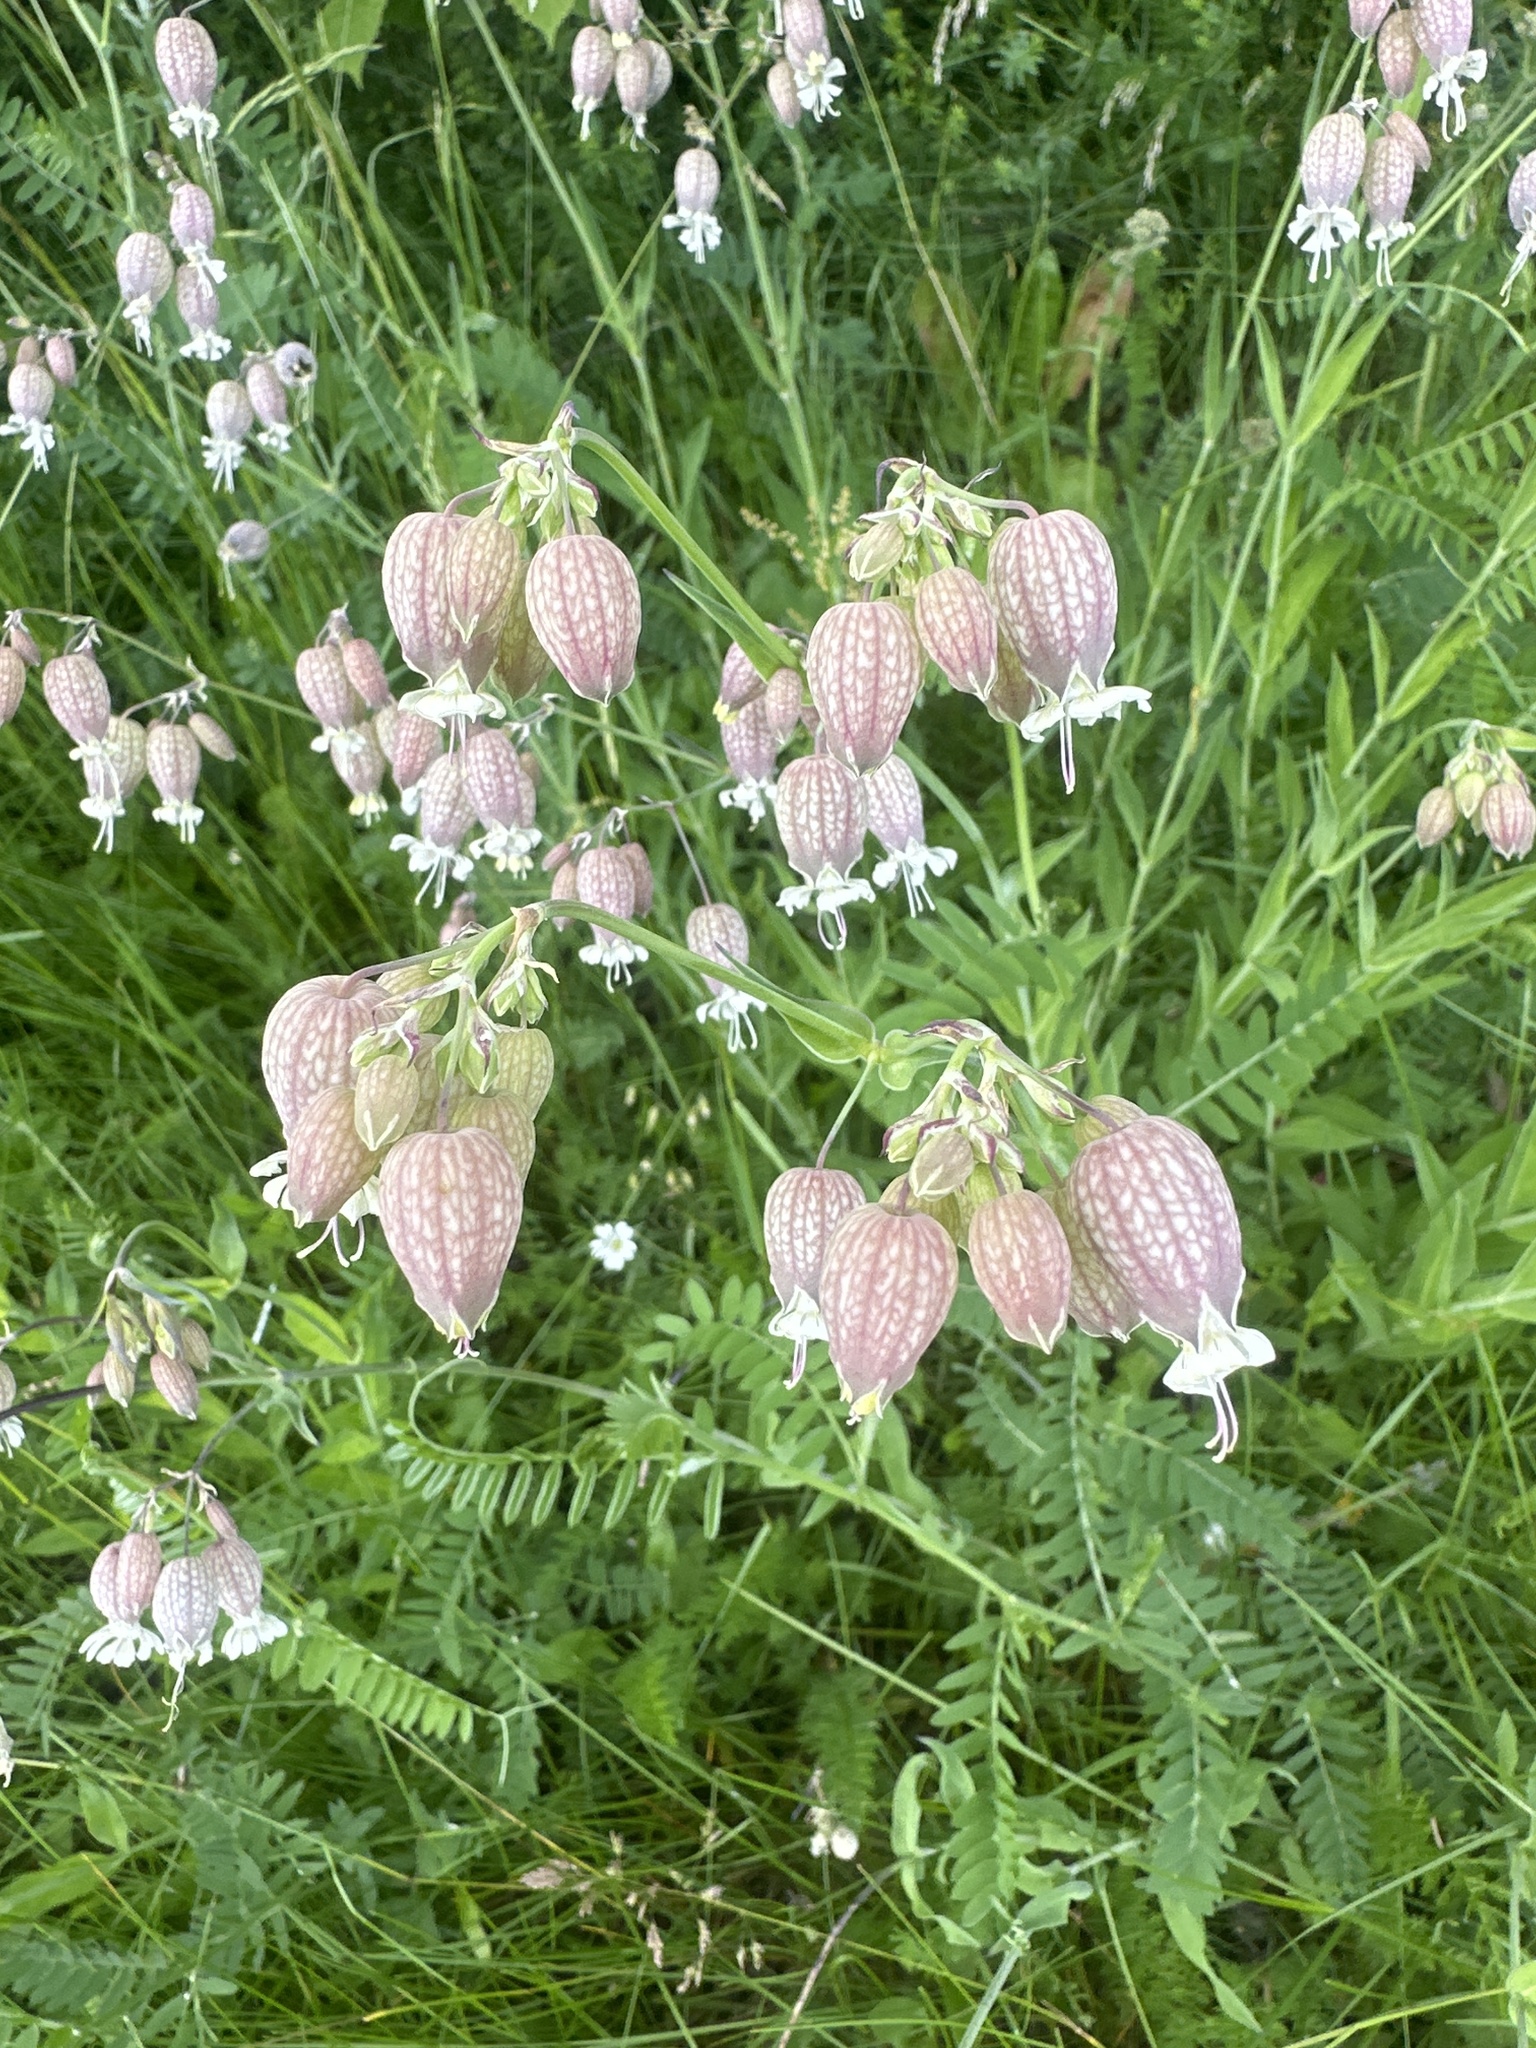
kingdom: Plantae
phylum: Tracheophyta
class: Magnoliopsida
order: Caryophyllales
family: Caryophyllaceae
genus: Silene
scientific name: Silene vulgaris
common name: Bladder campion
